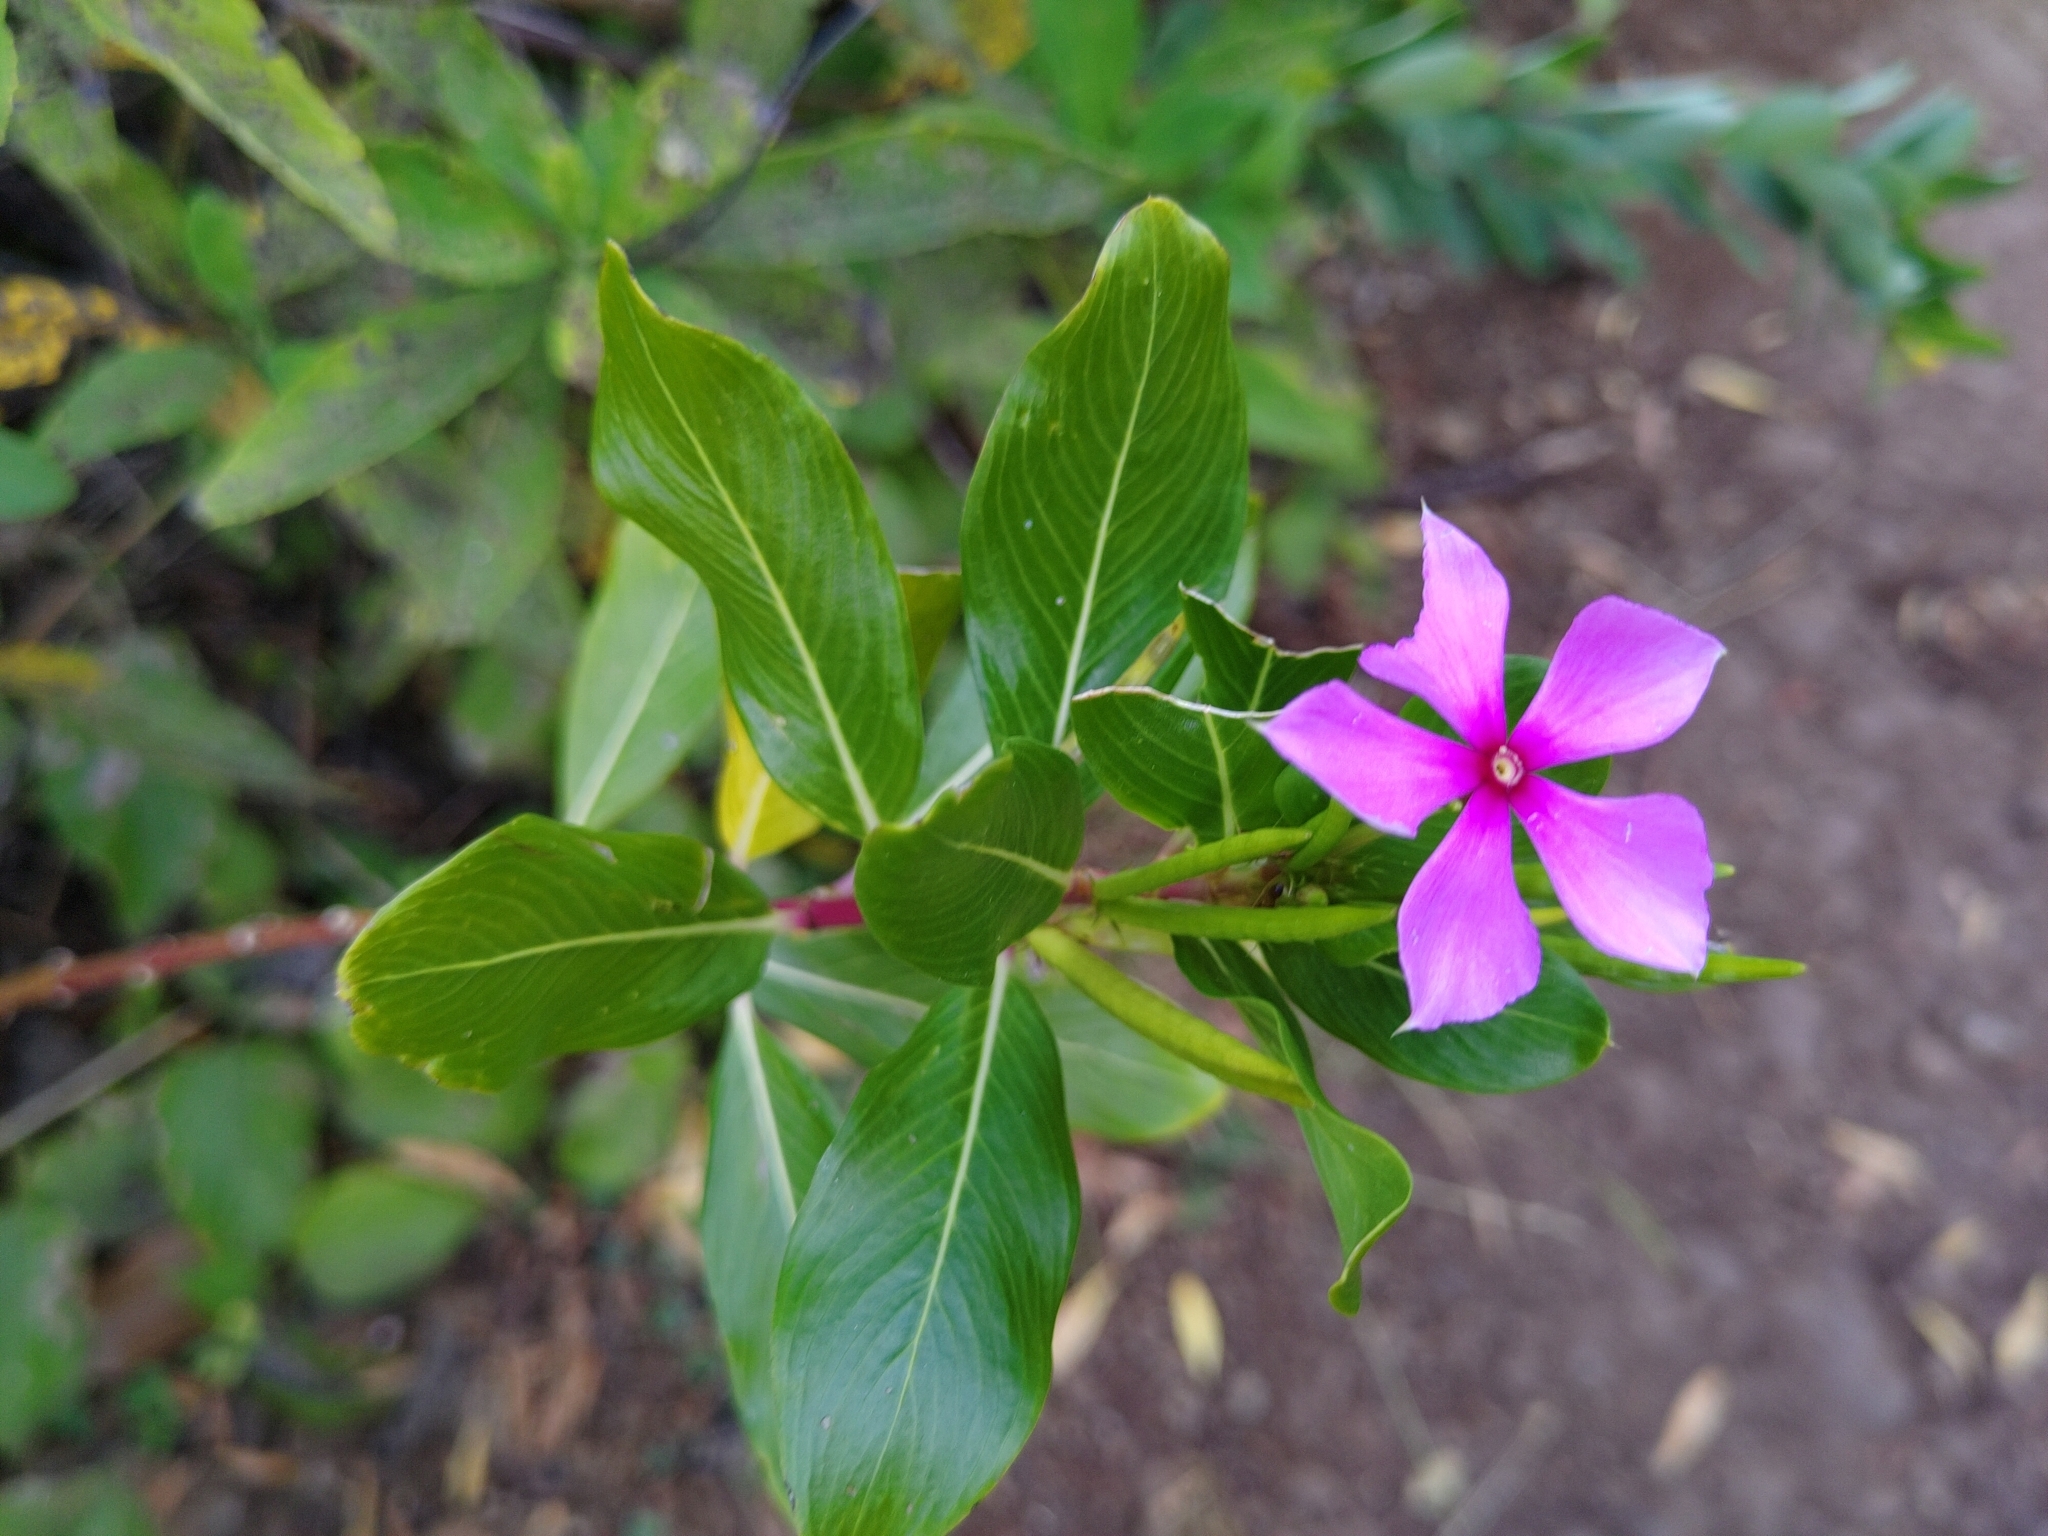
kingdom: Plantae
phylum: Tracheophyta
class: Magnoliopsida
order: Gentianales
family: Apocynaceae
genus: Catharanthus
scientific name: Catharanthus roseus
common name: Madagascar periwinkle
